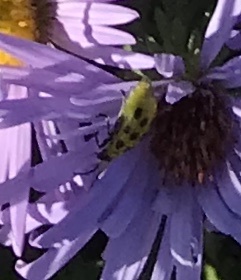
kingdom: Animalia
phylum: Arthropoda
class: Insecta
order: Coleoptera
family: Chrysomelidae
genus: Diabrotica
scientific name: Diabrotica undecimpunctata
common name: Spotted cucumber beetle
